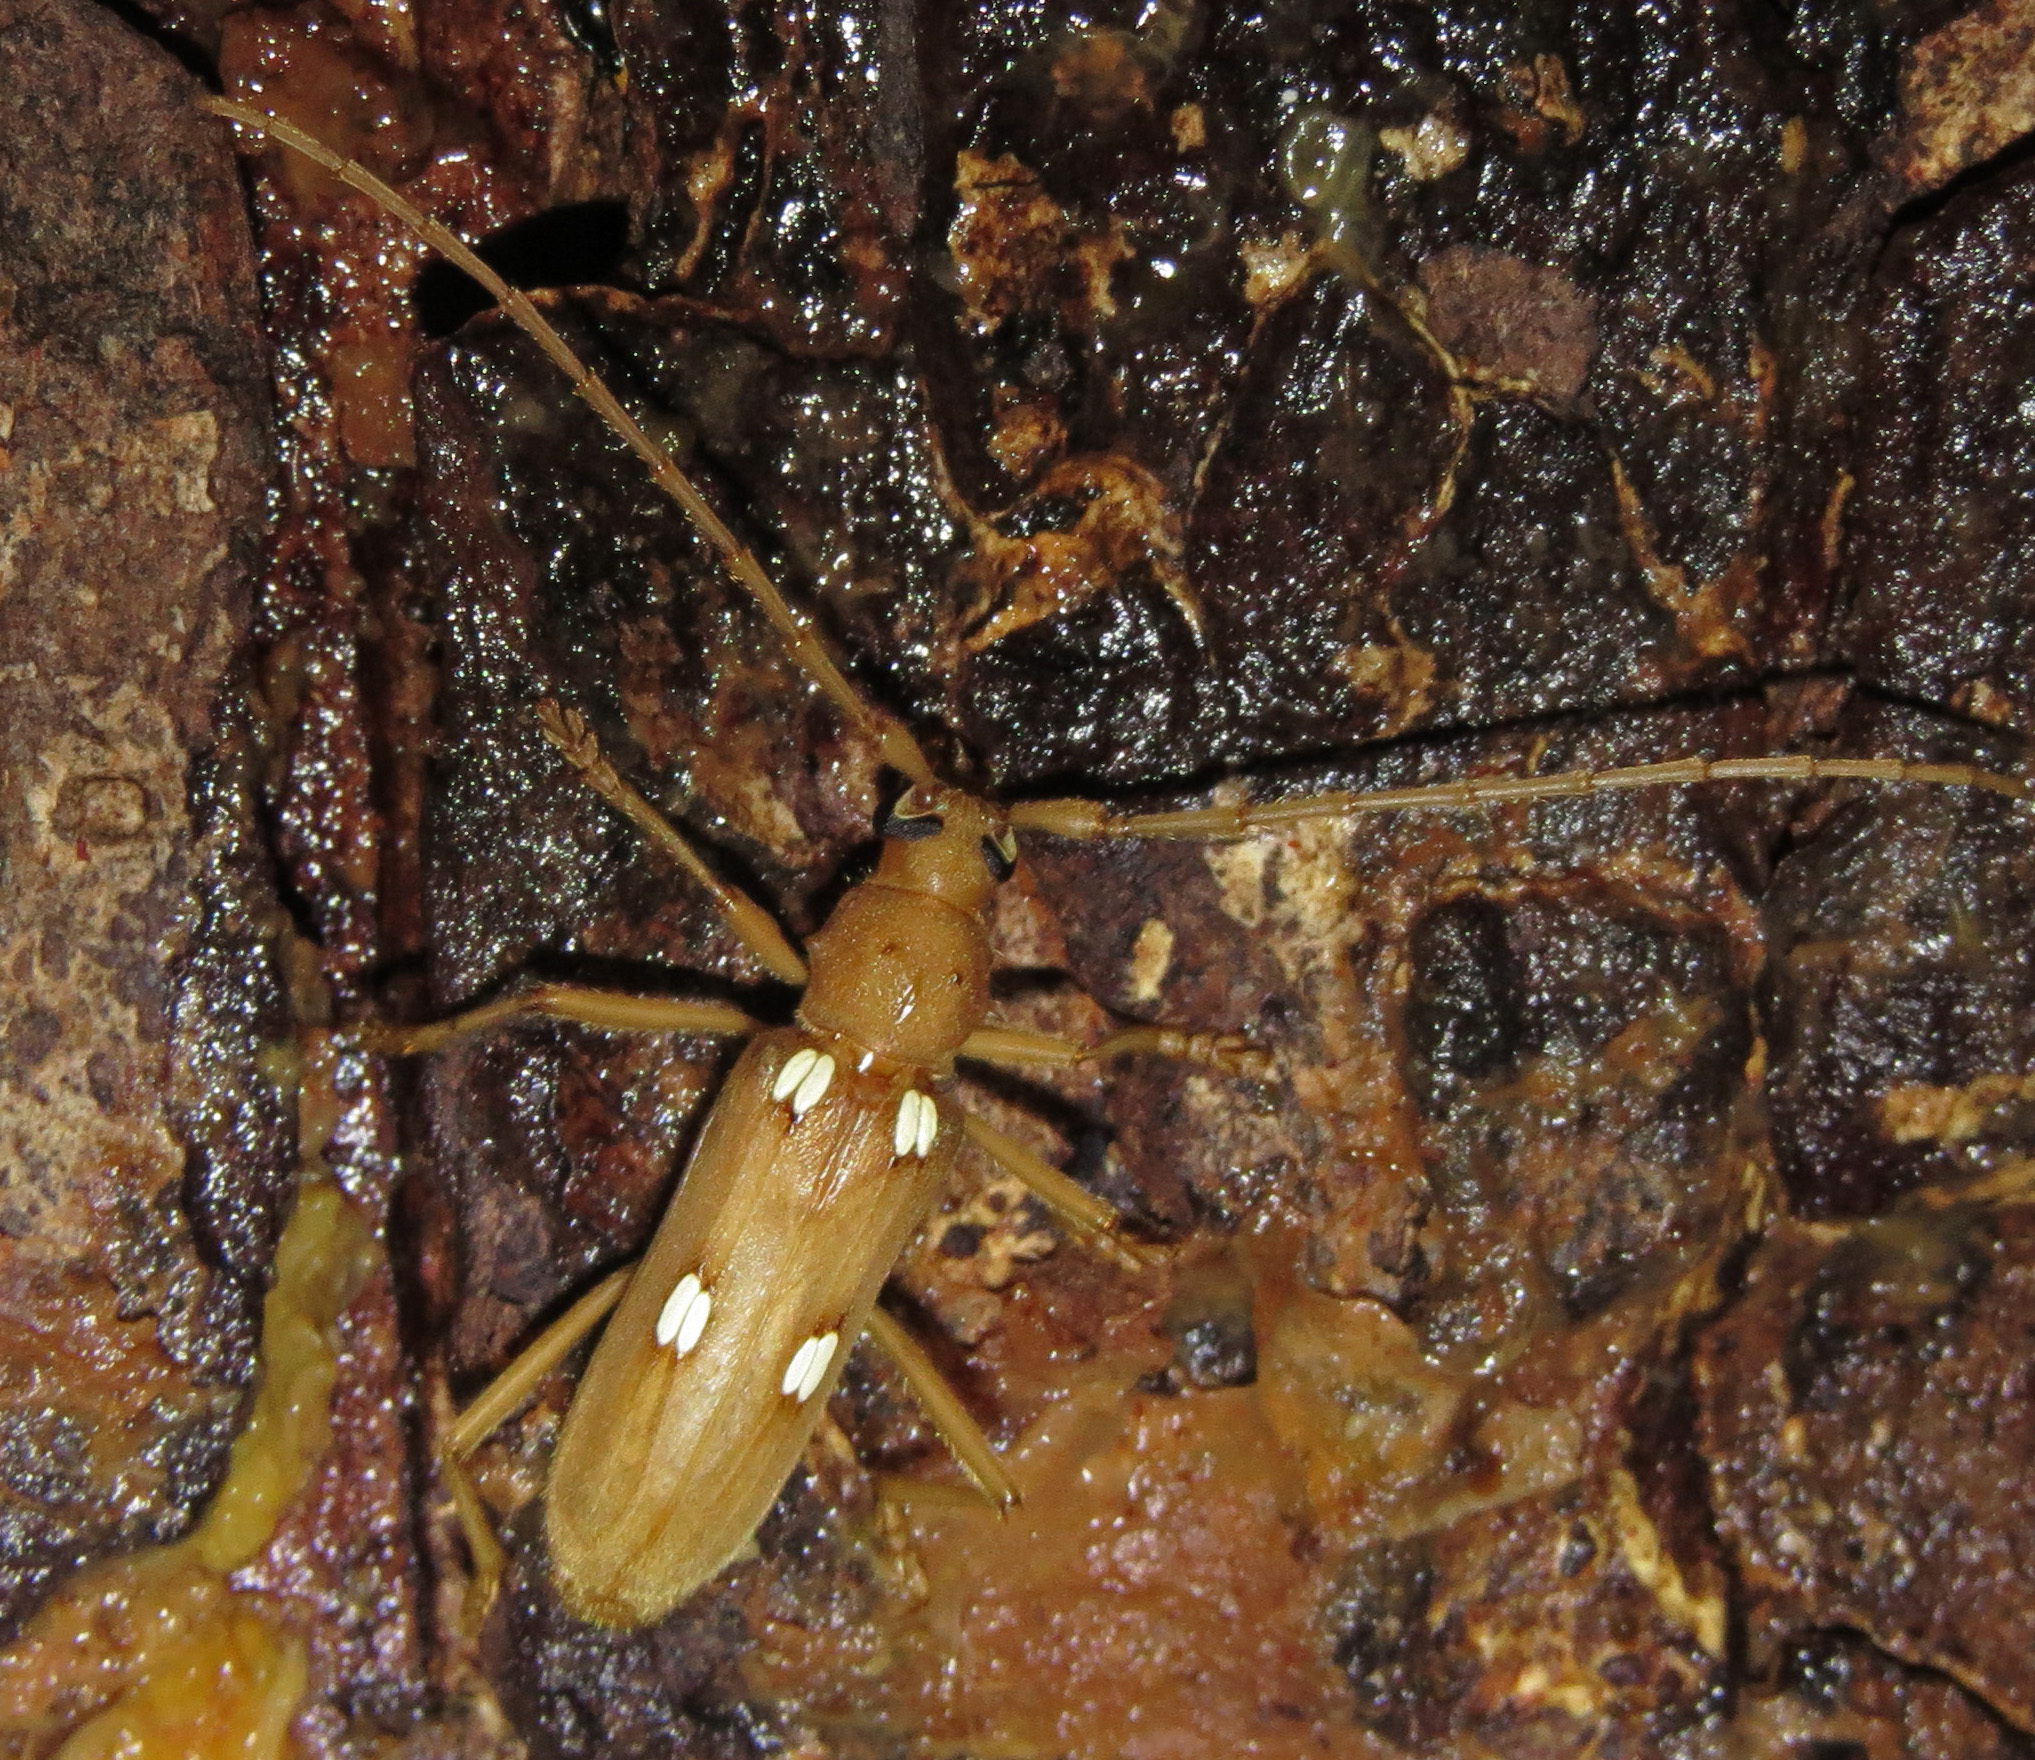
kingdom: Animalia
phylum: Arthropoda
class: Insecta
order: Coleoptera
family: Cerambycidae
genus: Eburia
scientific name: Eburia quadrigeminata
